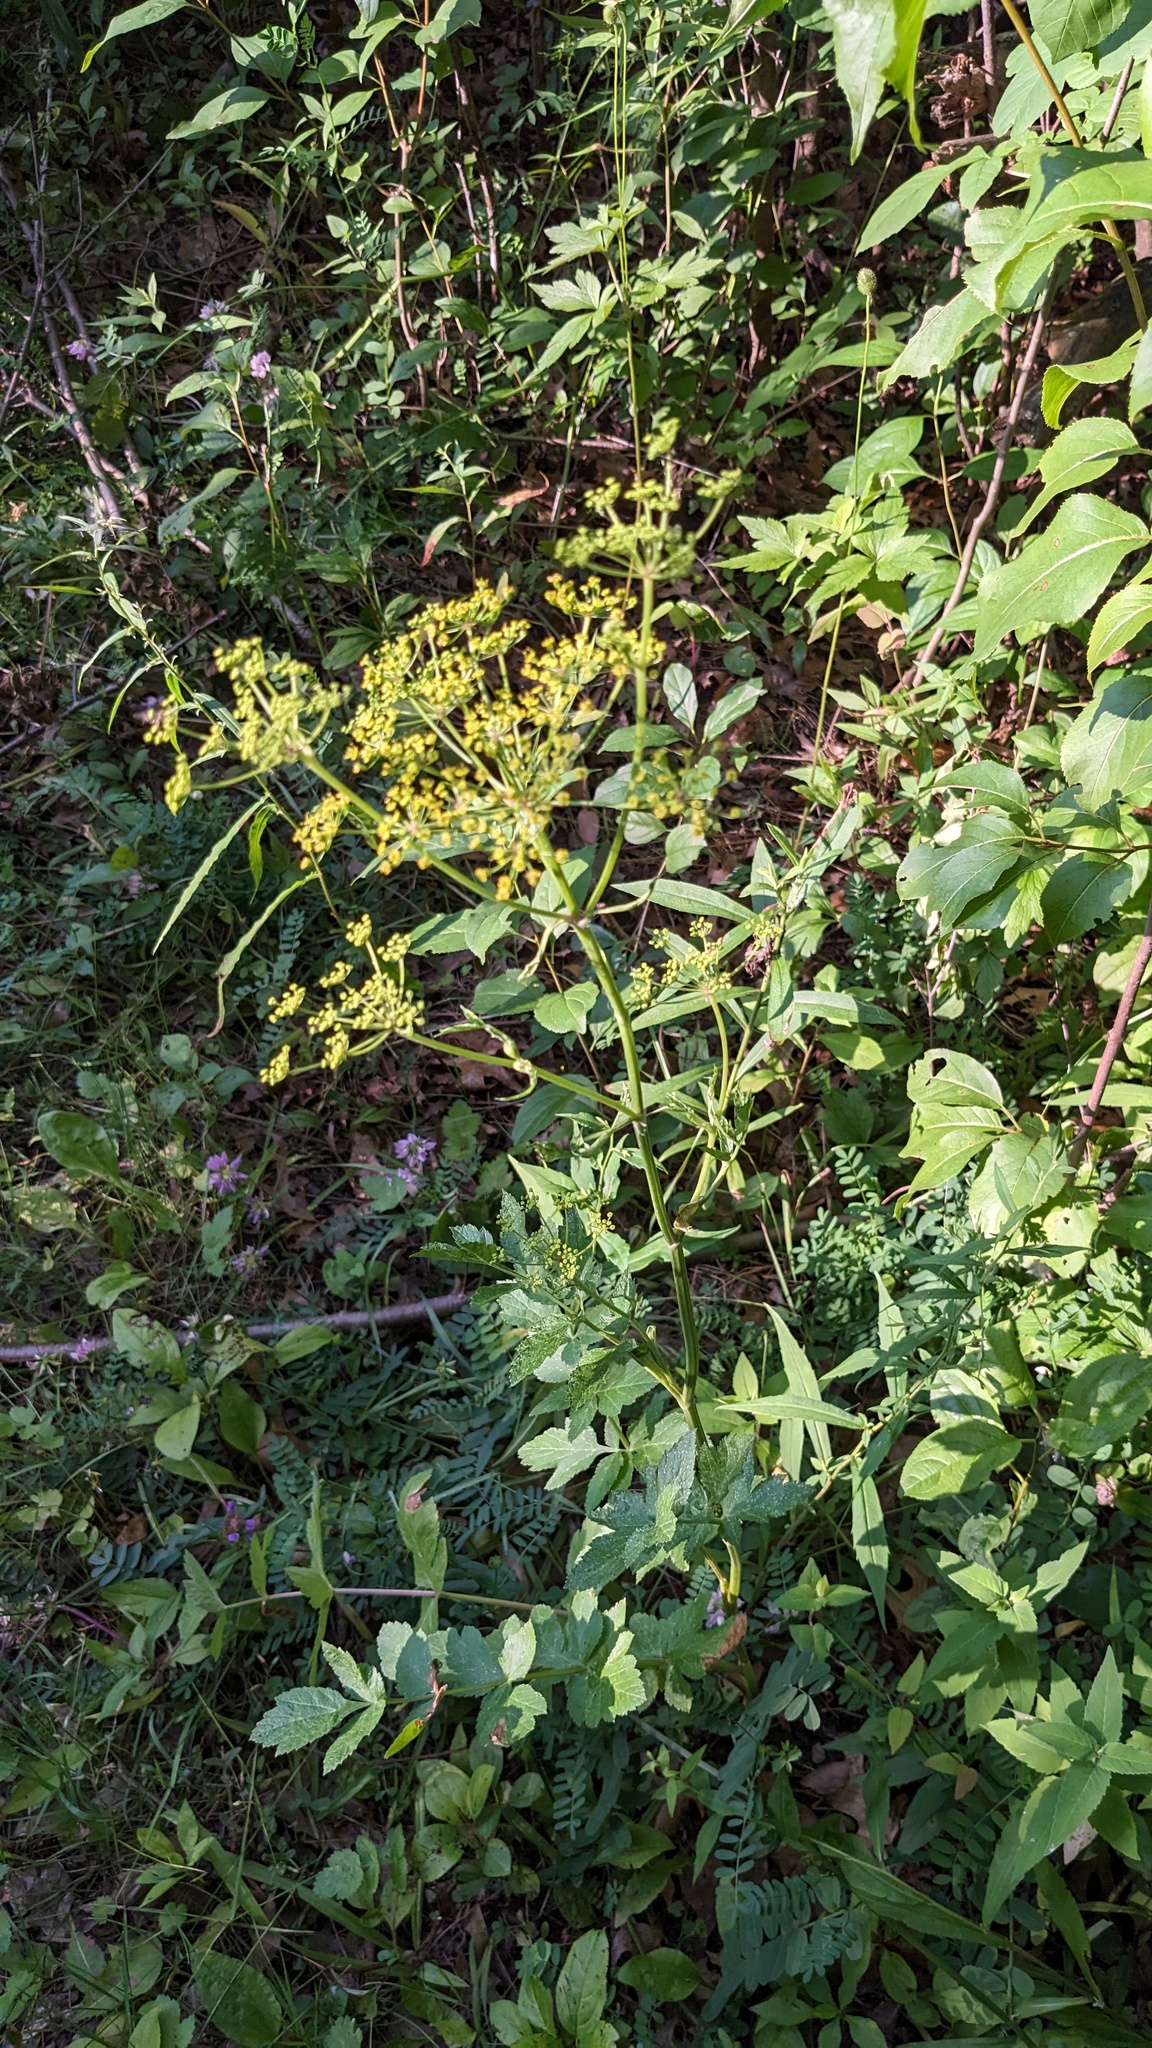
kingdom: Plantae
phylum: Tracheophyta
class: Magnoliopsida
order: Apiales
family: Apiaceae
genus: Pastinaca
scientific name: Pastinaca sativa
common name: Wild parsnip
